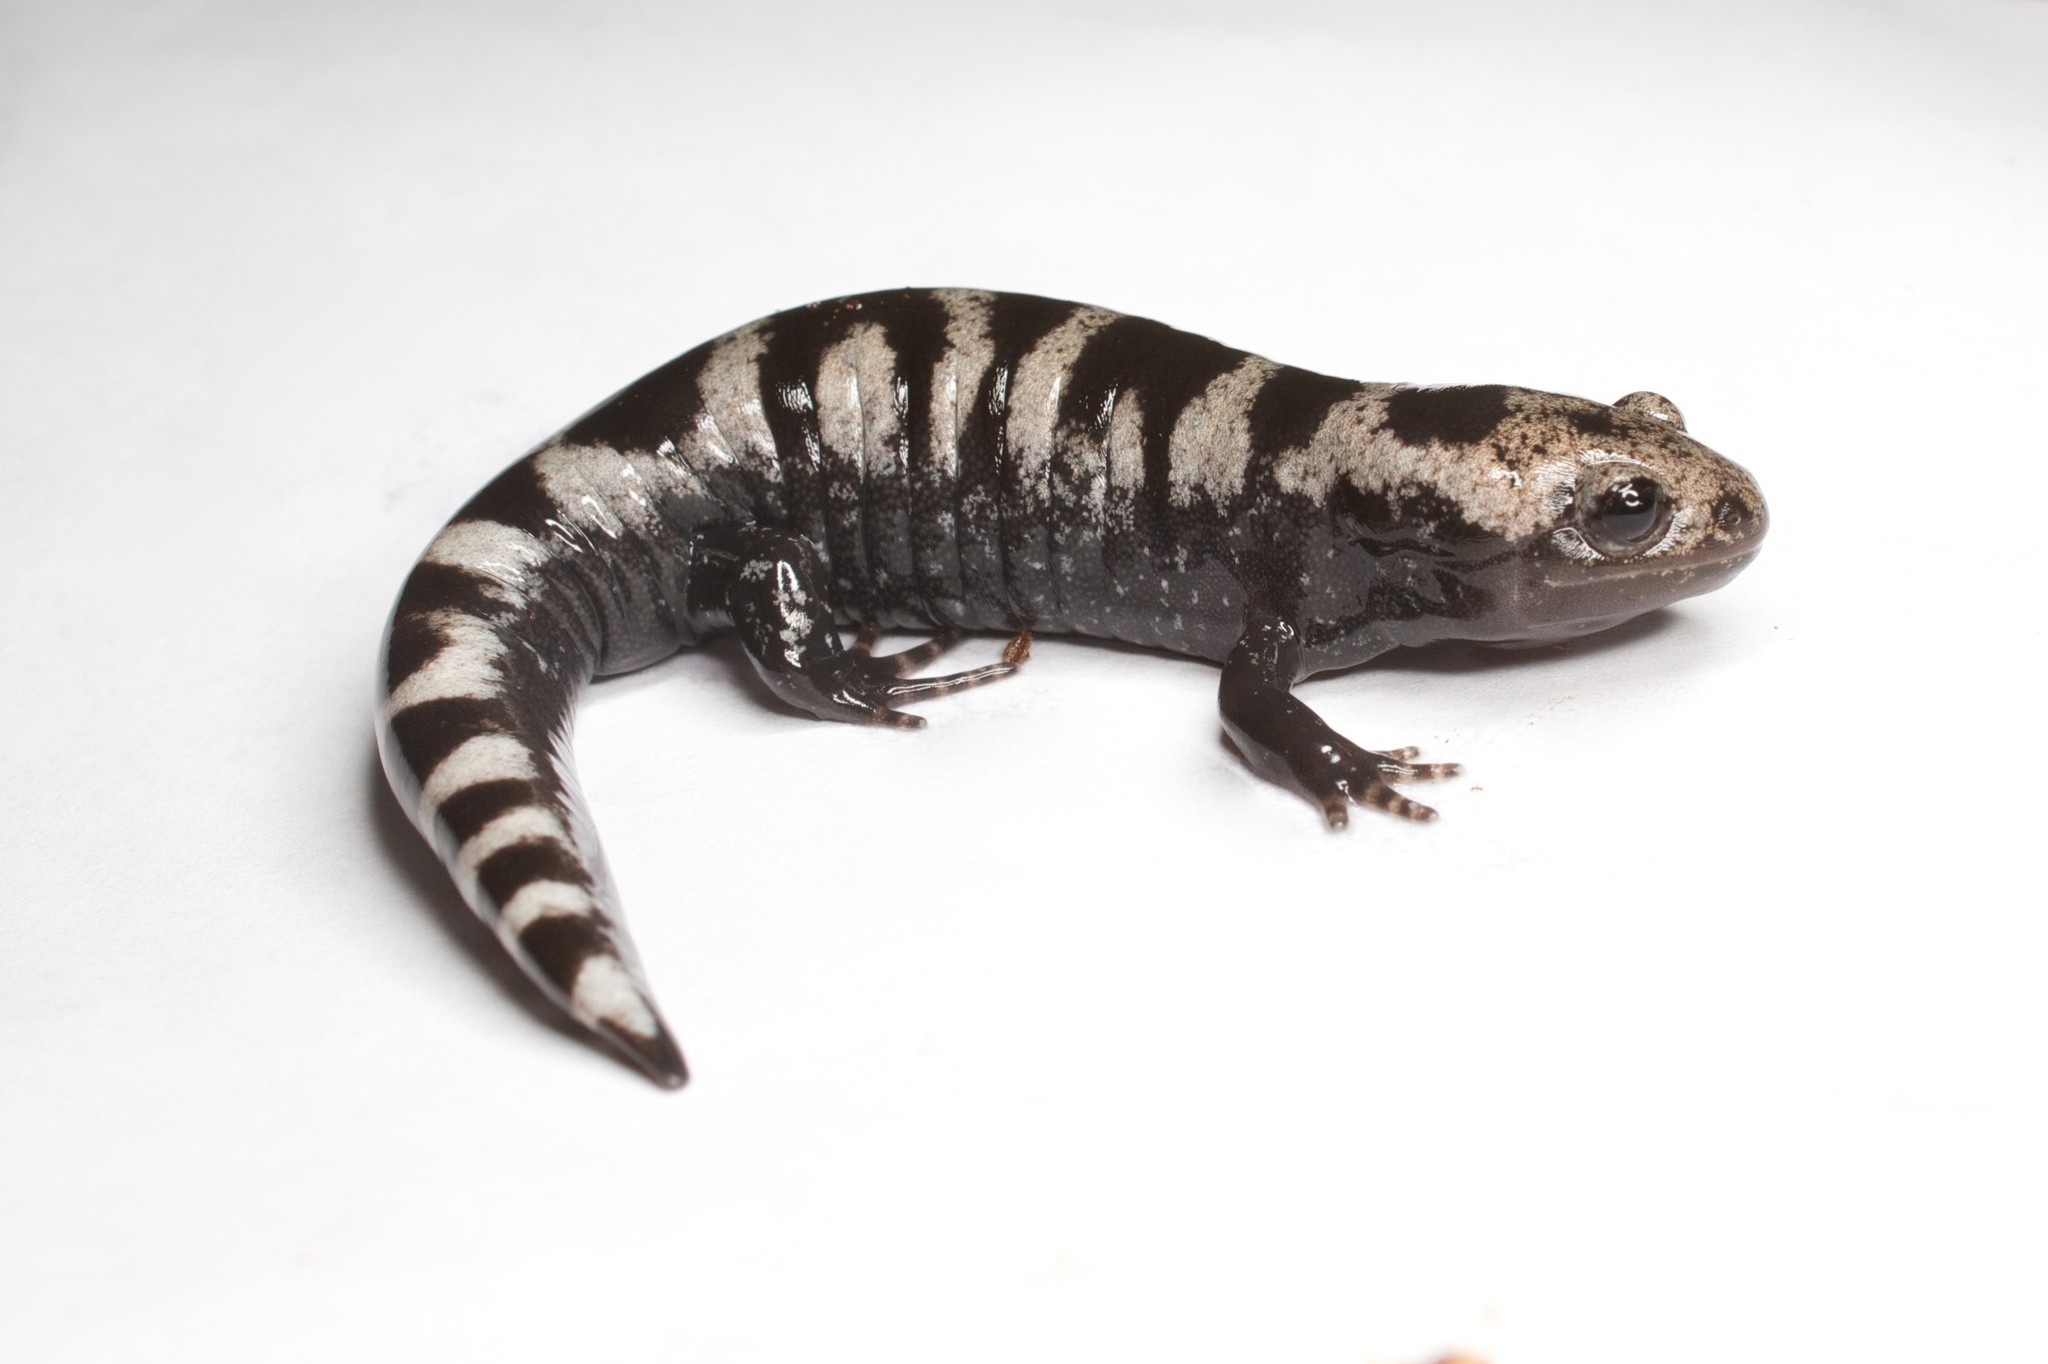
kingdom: Animalia
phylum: Chordata
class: Amphibia
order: Caudata
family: Ambystomatidae
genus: Ambystoma
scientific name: Ambystoma opacum
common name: Marbled salamander
